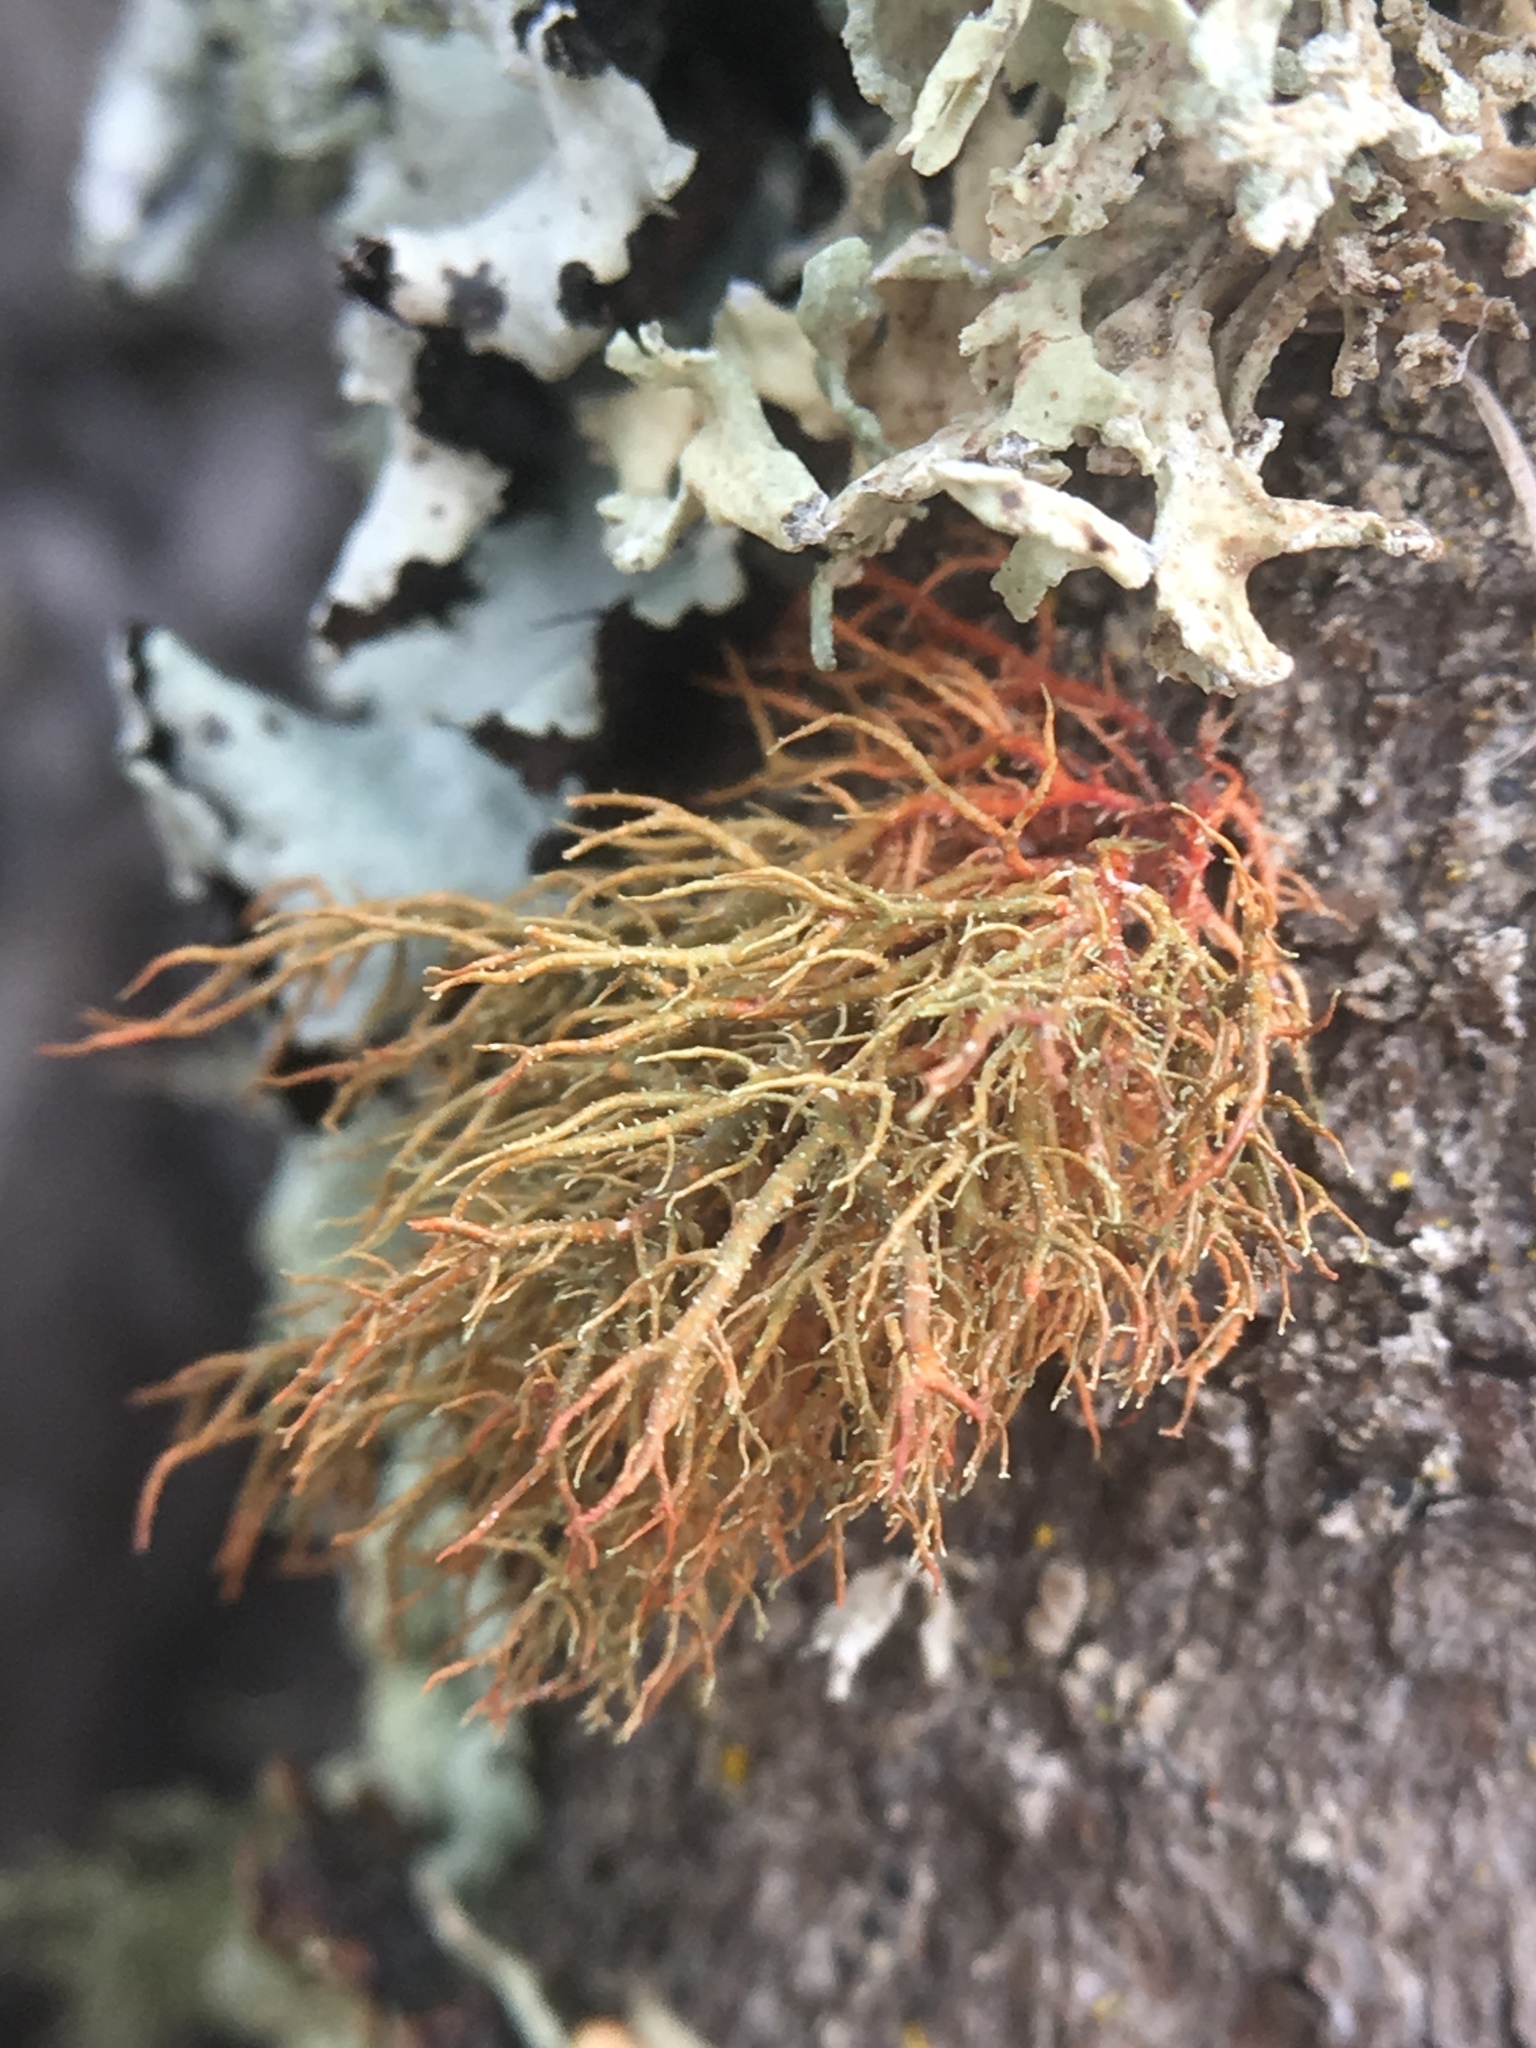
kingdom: Fungi
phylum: Ascomycota
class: Lecanoromycetes
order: Lecanorales
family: Parmeliaceae
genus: Usnea
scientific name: Usnea rubicunda
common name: Red beard lichen
